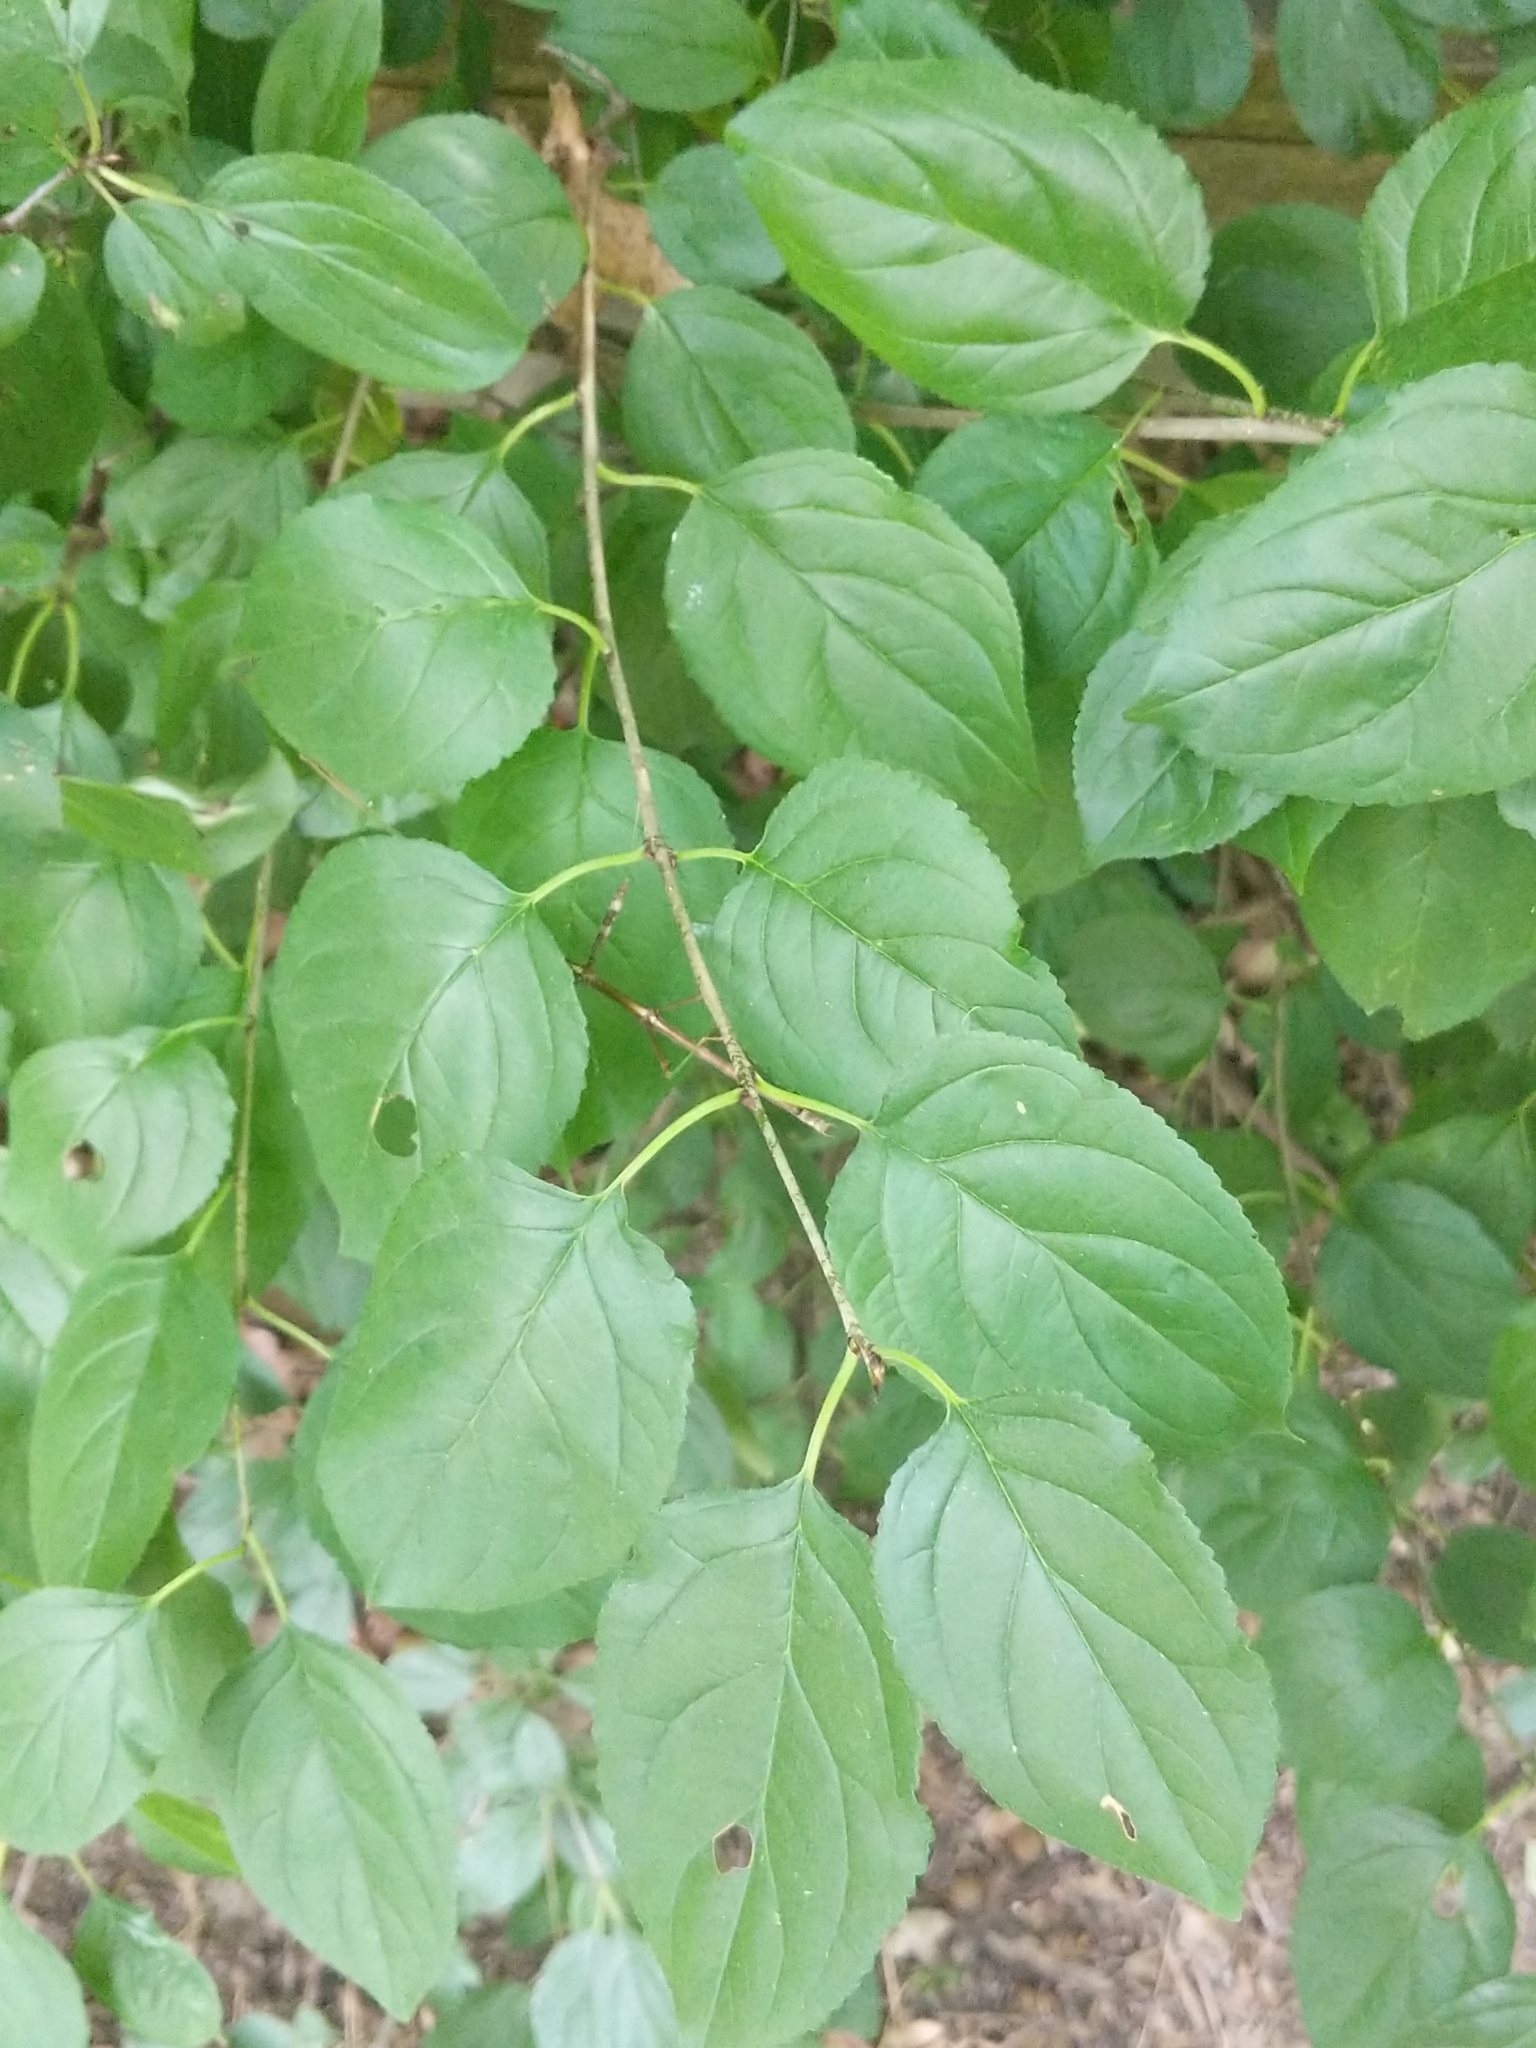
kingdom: Plantae
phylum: Tracheophyta
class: Magnoliopsida
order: Rosales
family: Rhamnaceae
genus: Rhamnus
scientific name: Rhamnus cathartica
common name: Common buckthorn
